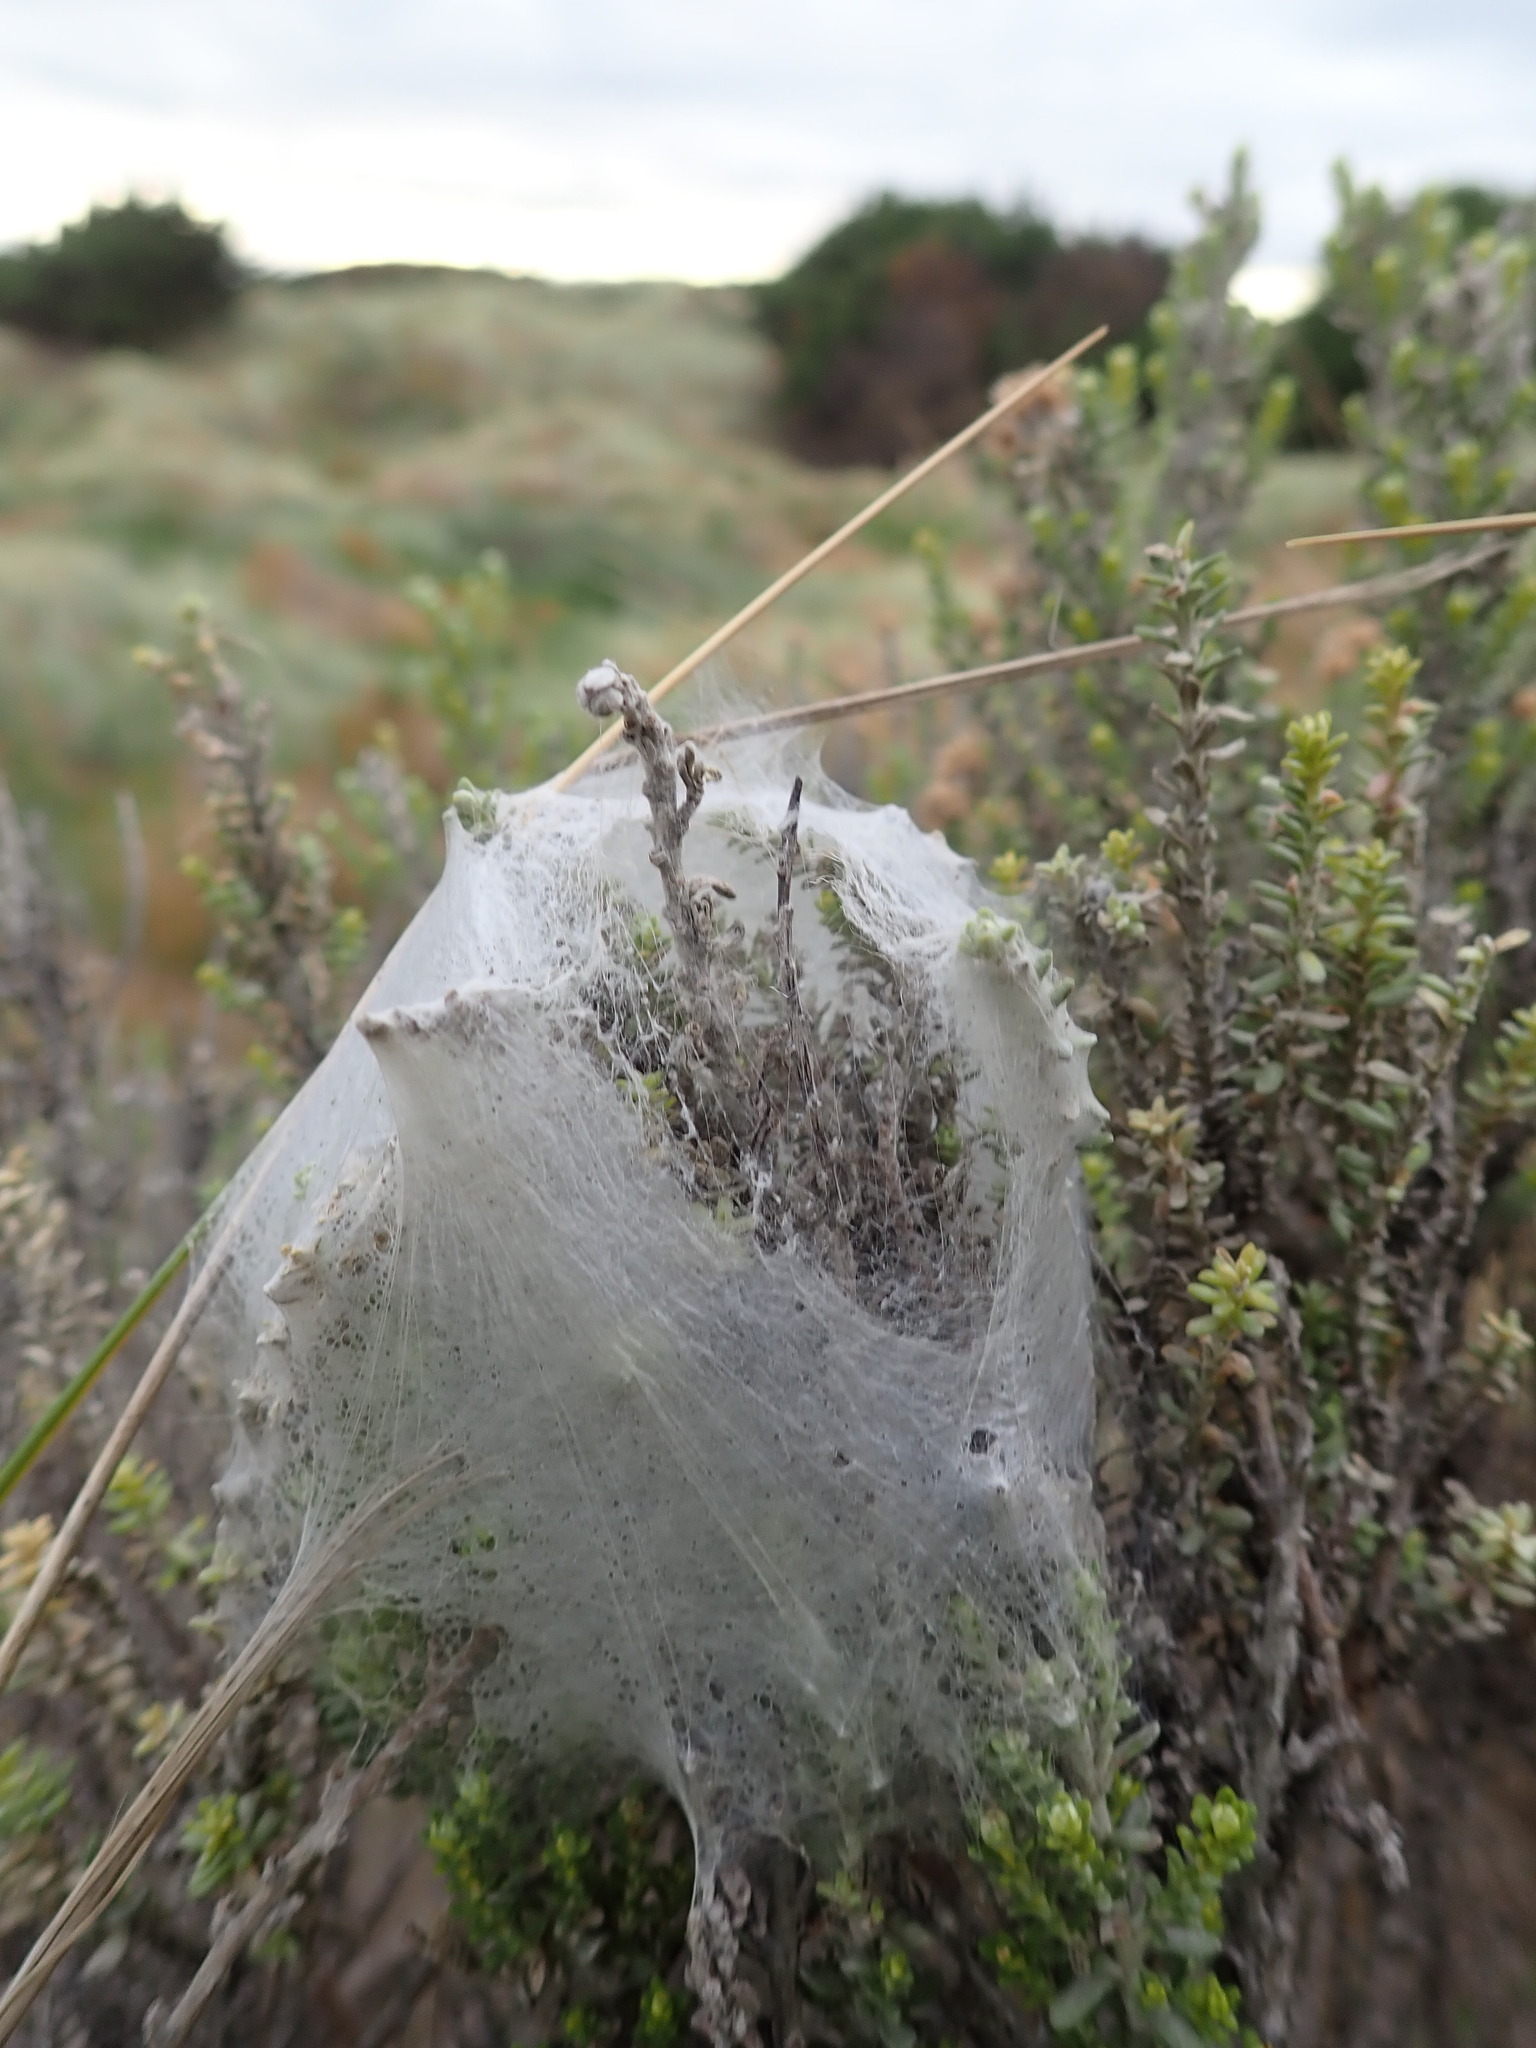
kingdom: Animalia
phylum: Arthropoda
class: Arachnida
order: Araneae
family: Pisauridae
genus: Dolomedes
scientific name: Dolomedes minor
